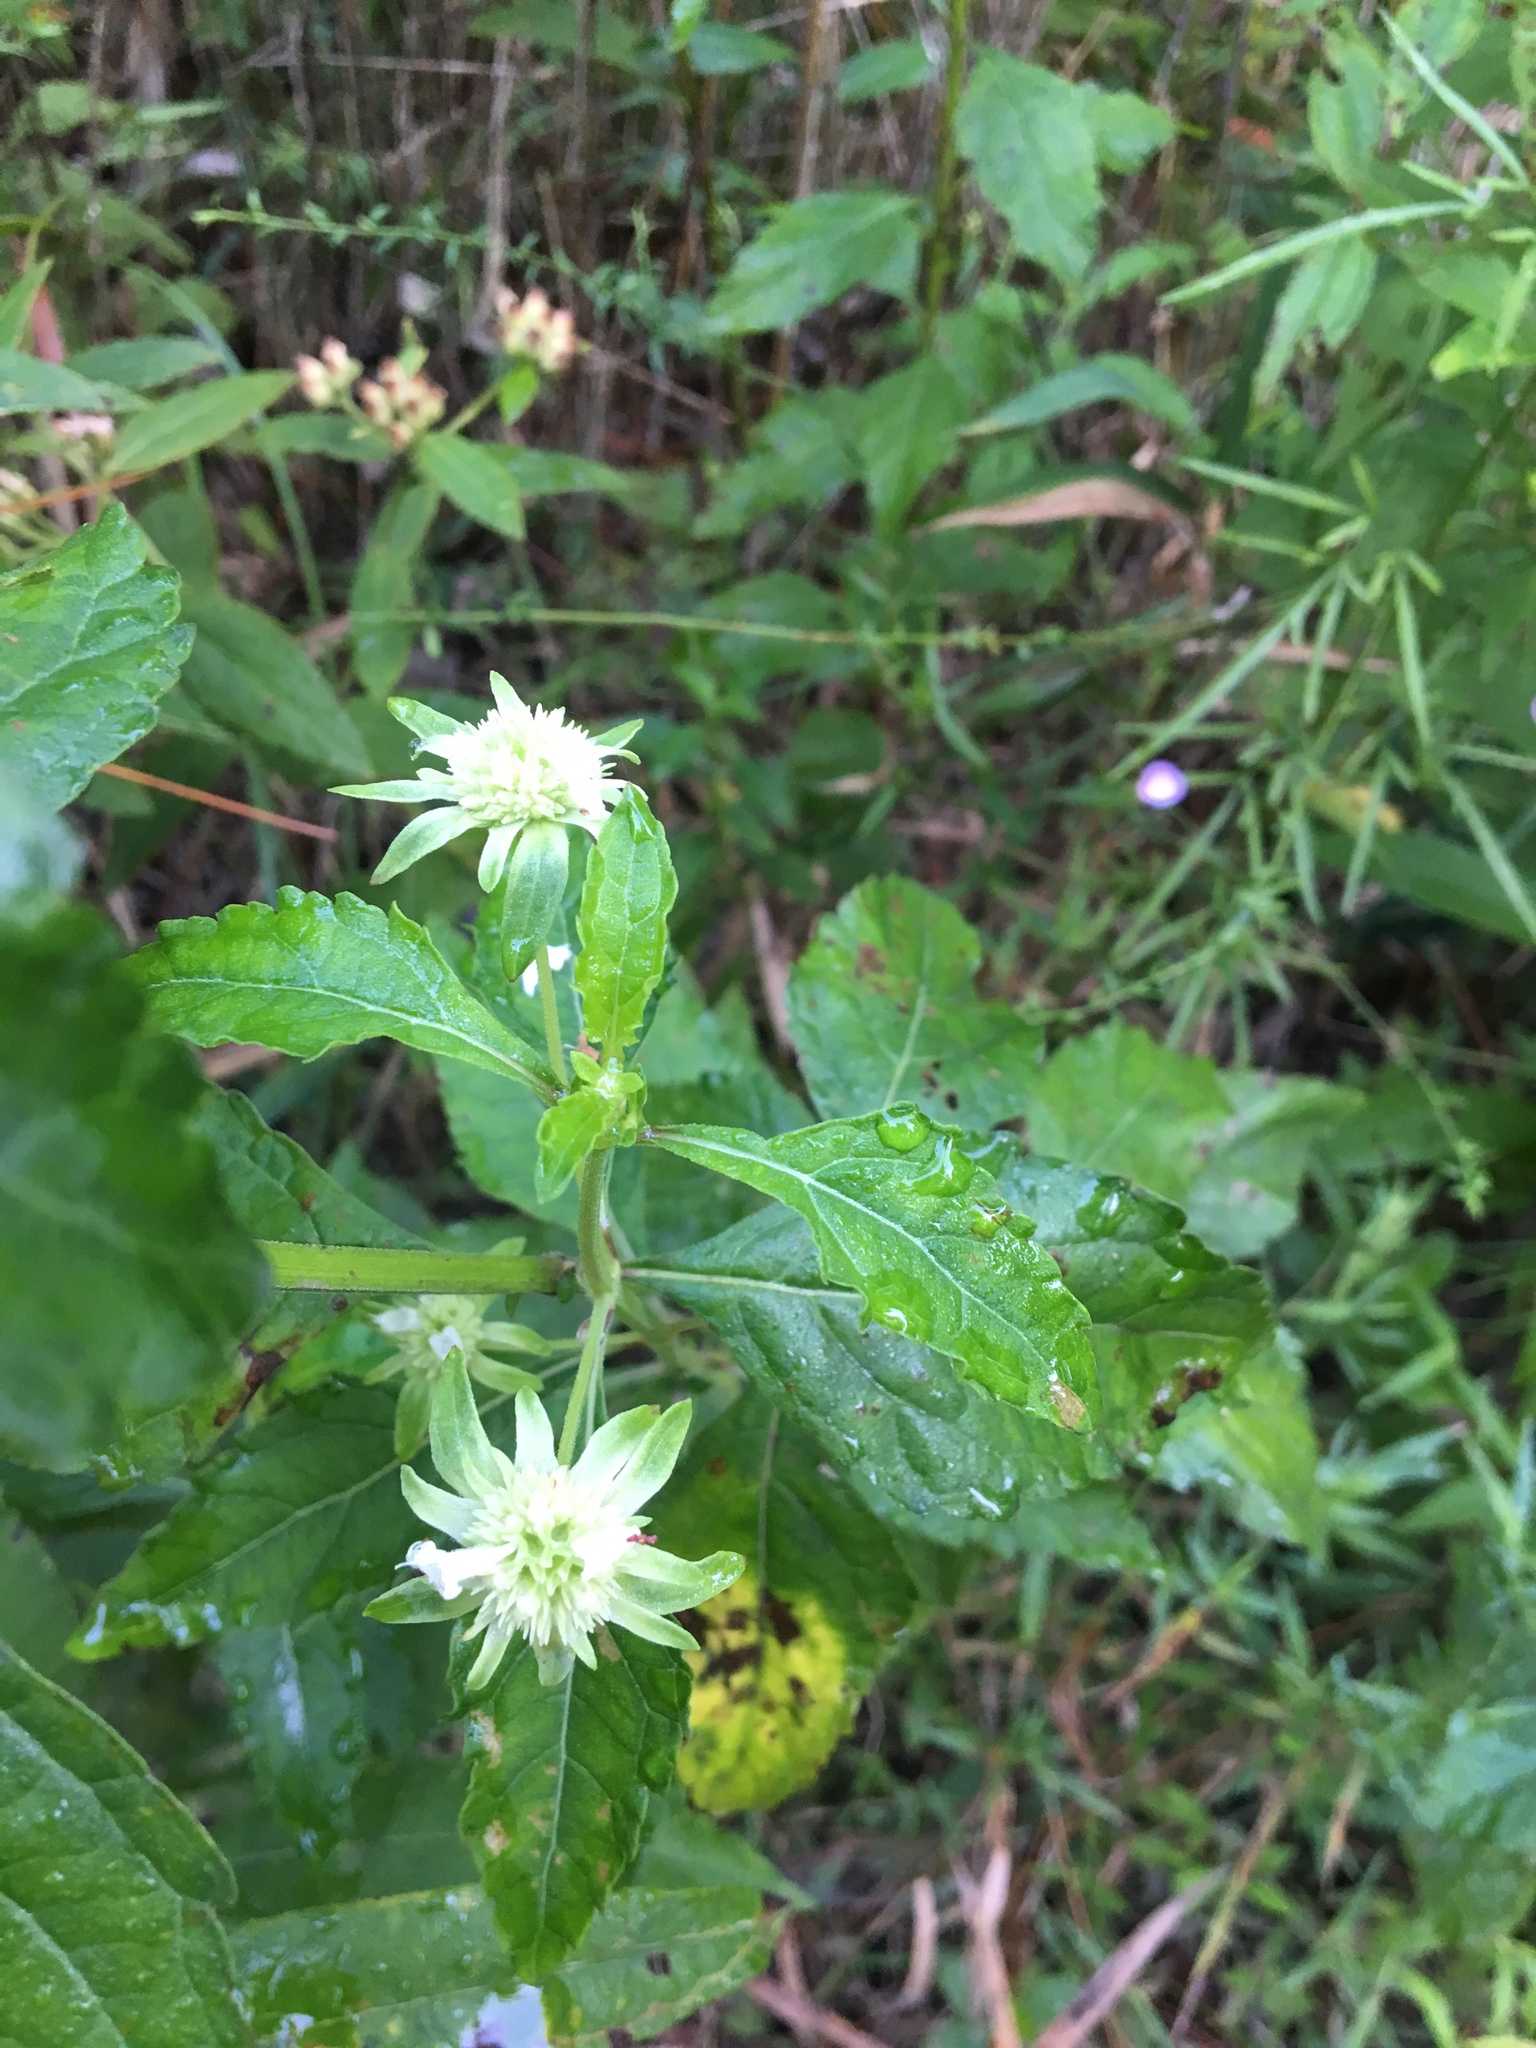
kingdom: Plantae
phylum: Tracheophyta
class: Magnoliopsida
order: Lamiales
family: Lamiaceae
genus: Hyptis
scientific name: Hyptis alata
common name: Cluster bush-mint
